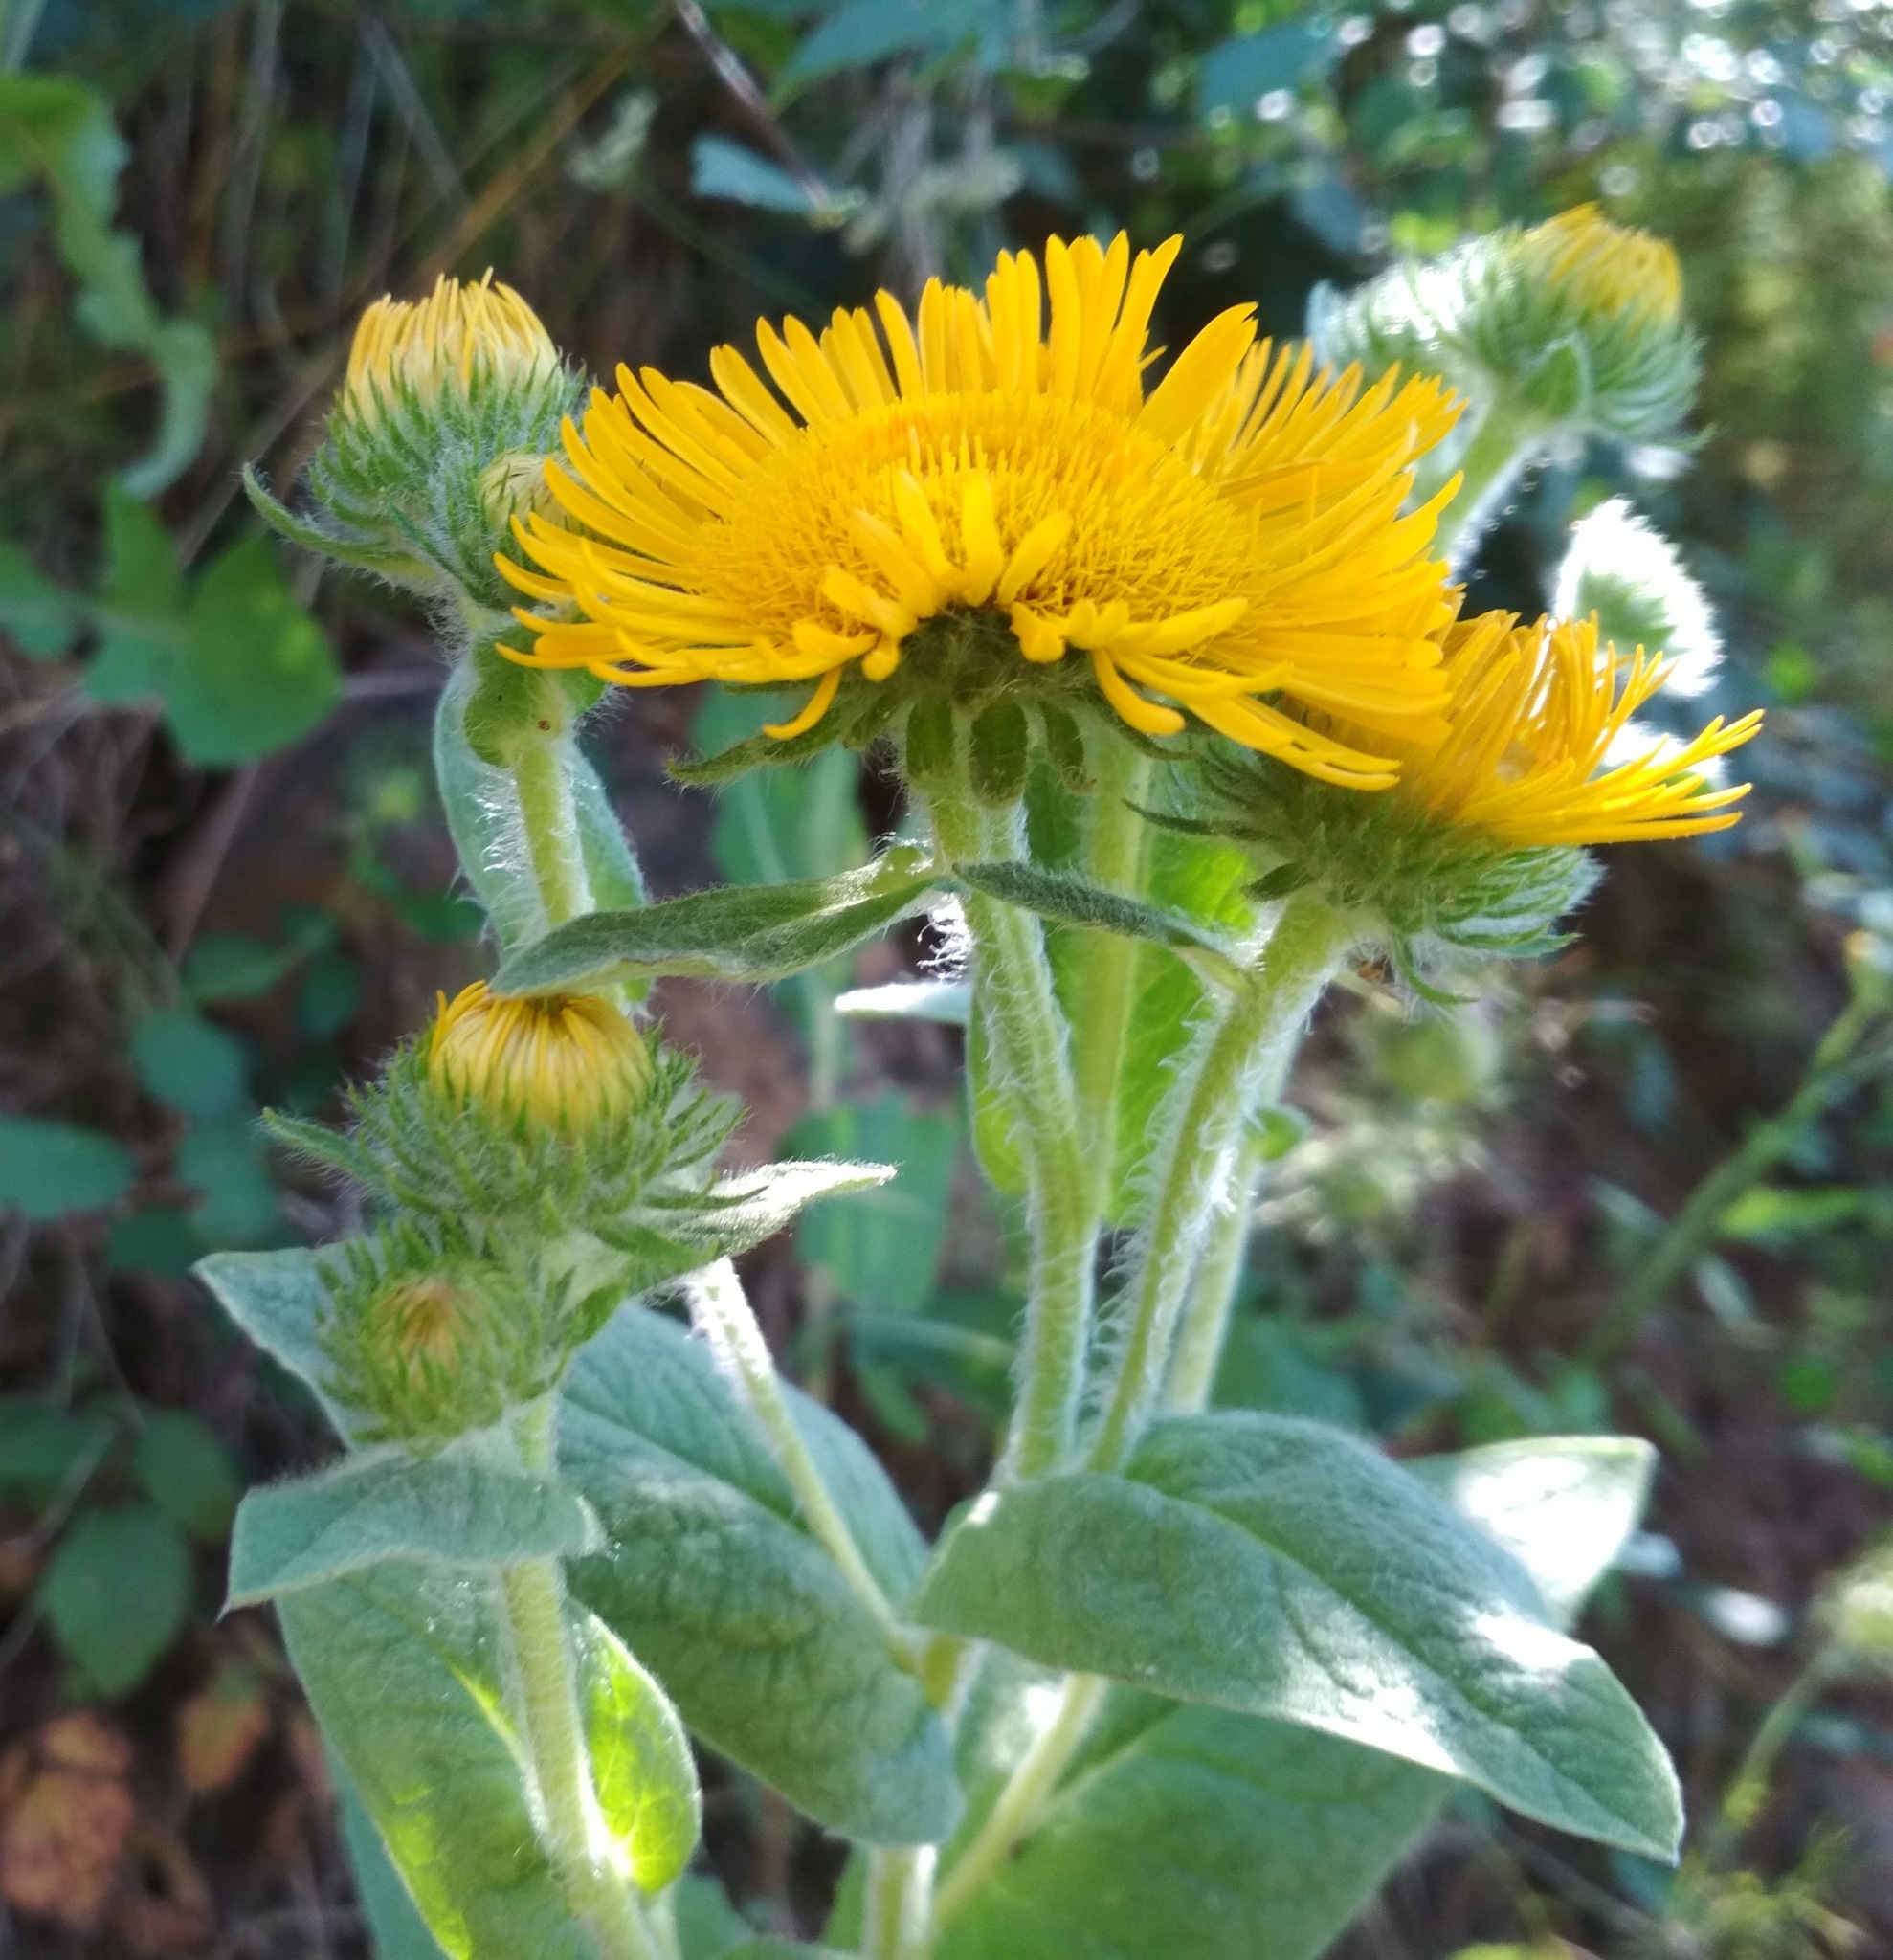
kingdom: Plantae
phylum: Tracheophyta
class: Magnoliopsida
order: Asterales
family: Asteraceae
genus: Pentanema
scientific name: Pentanema helenioides
